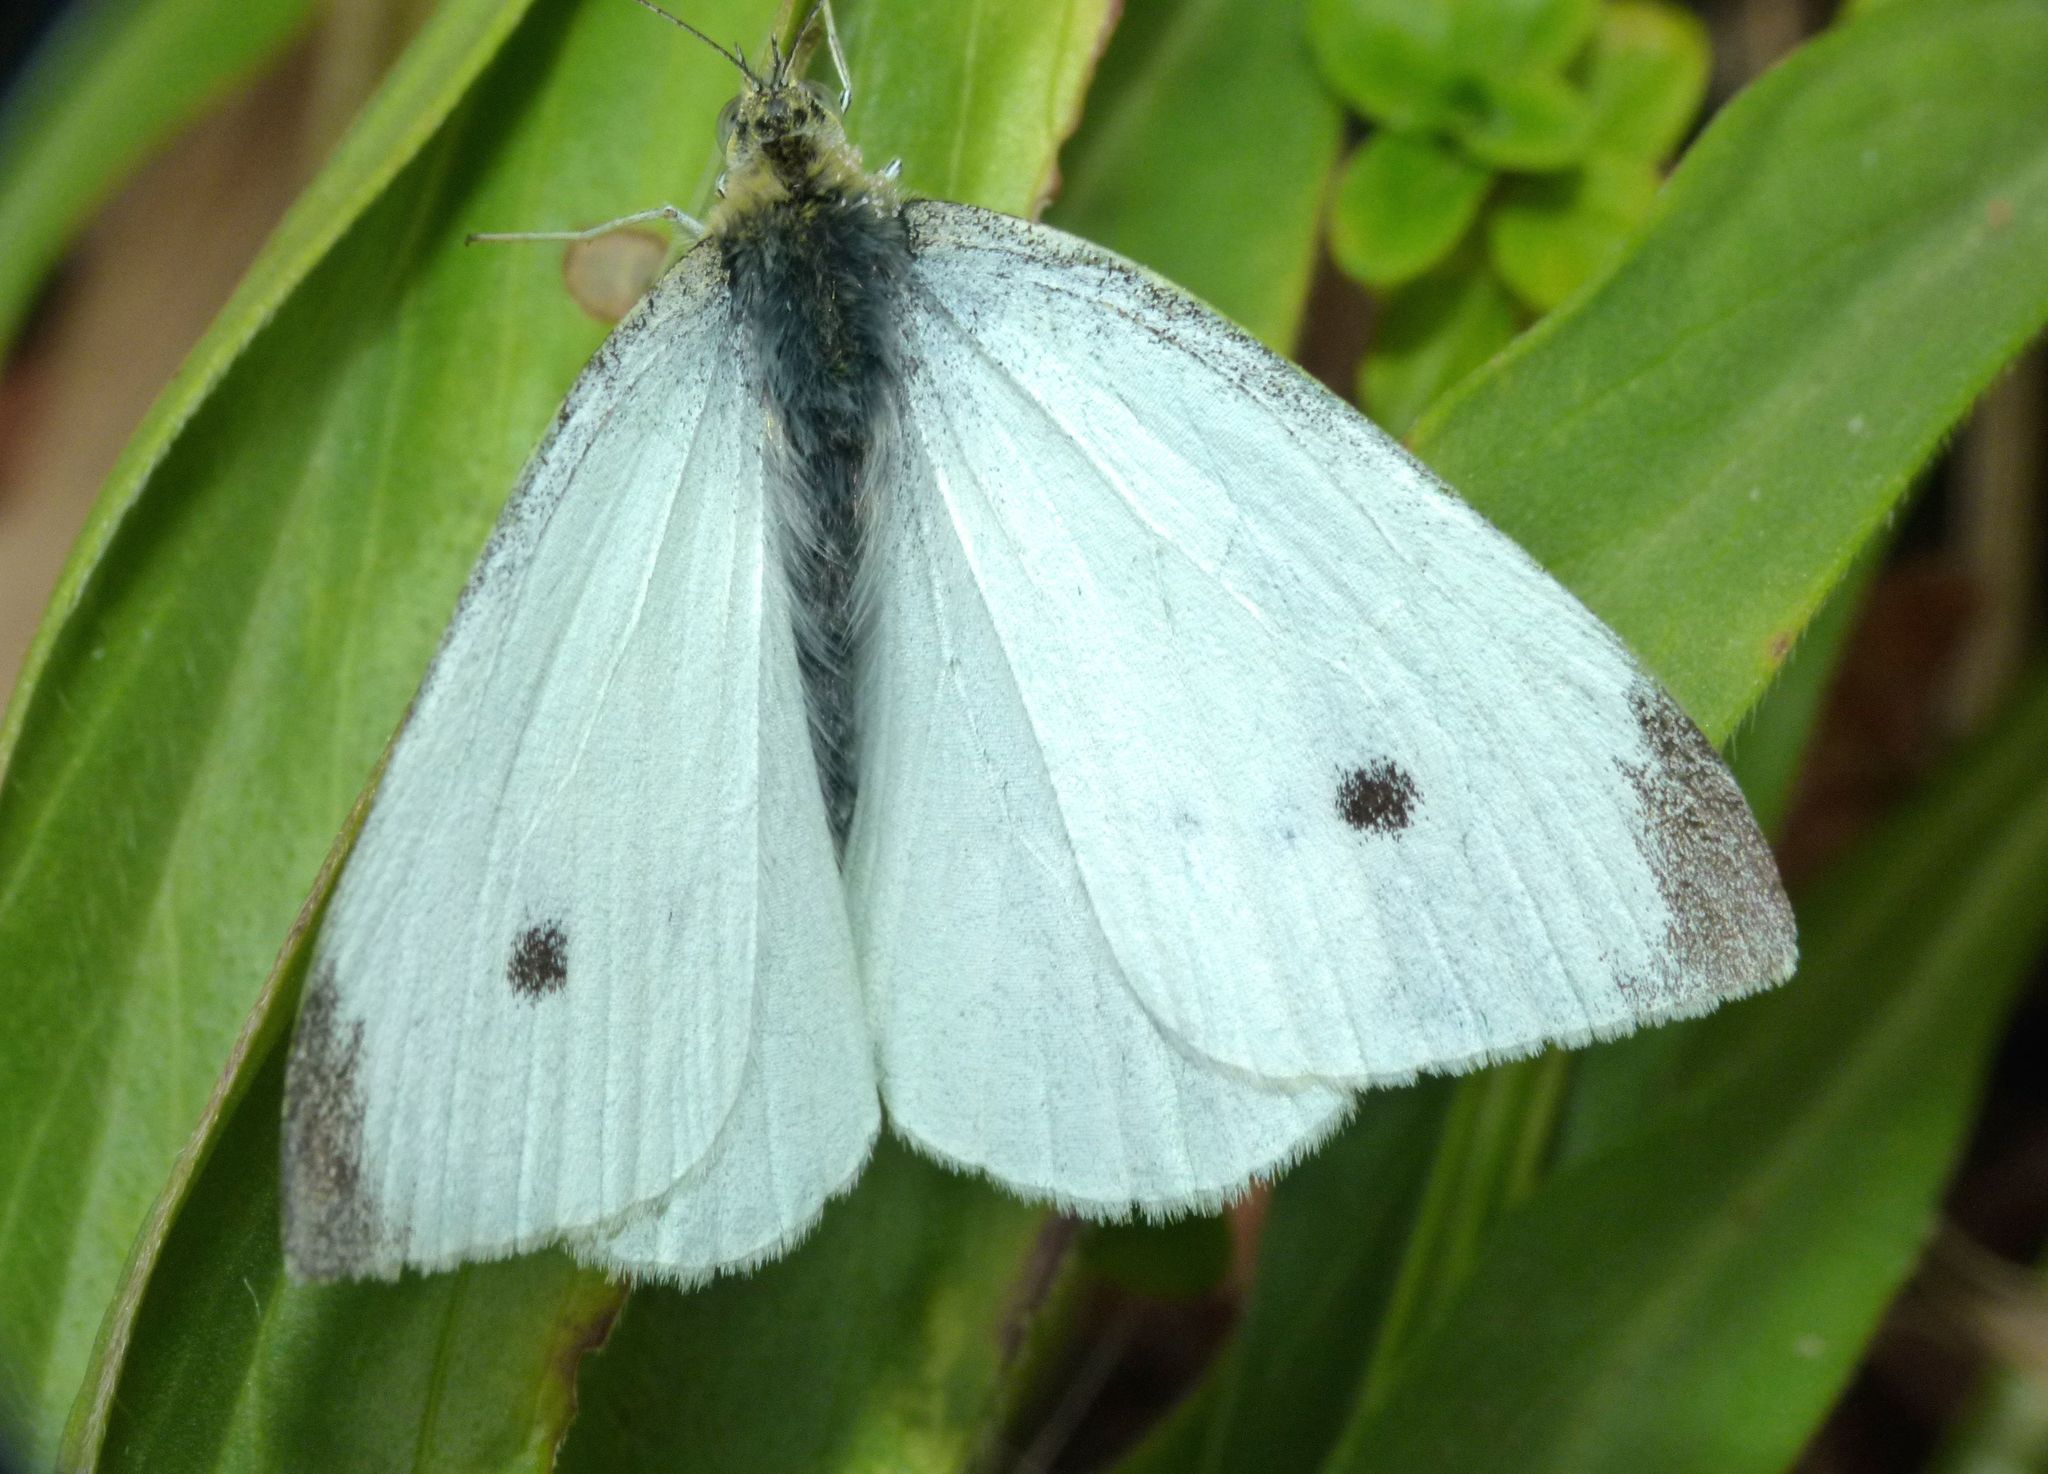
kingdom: Animalia
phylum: Arthropoda
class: Insecta
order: Lepidoptera
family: Pieridae
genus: Pieris
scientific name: Pieris rapae
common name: Small white
